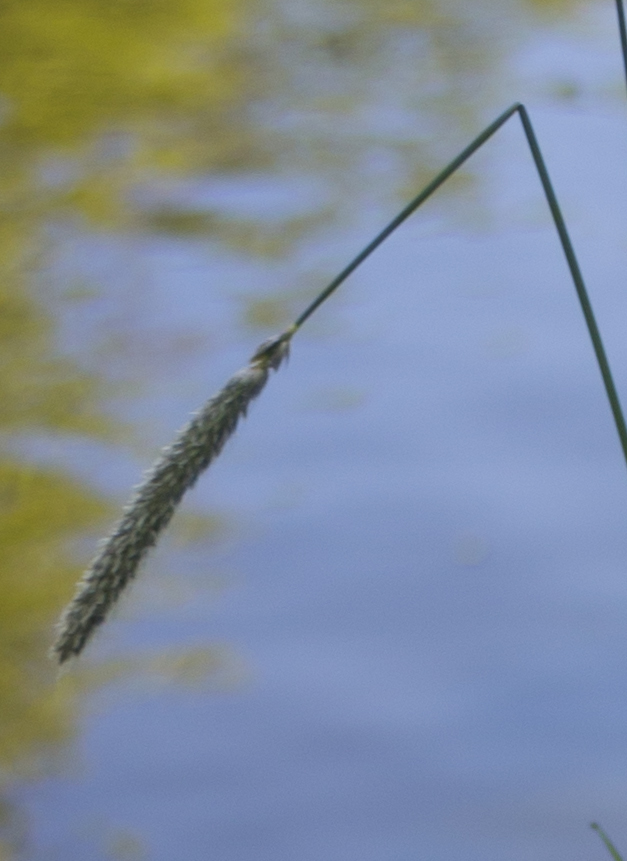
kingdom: Plantae
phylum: Tracheophyta
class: Liliopsida
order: Poales
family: Poaceae
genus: Alopecurus
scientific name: Alopecurus pratensis
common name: Meadow foxtail
